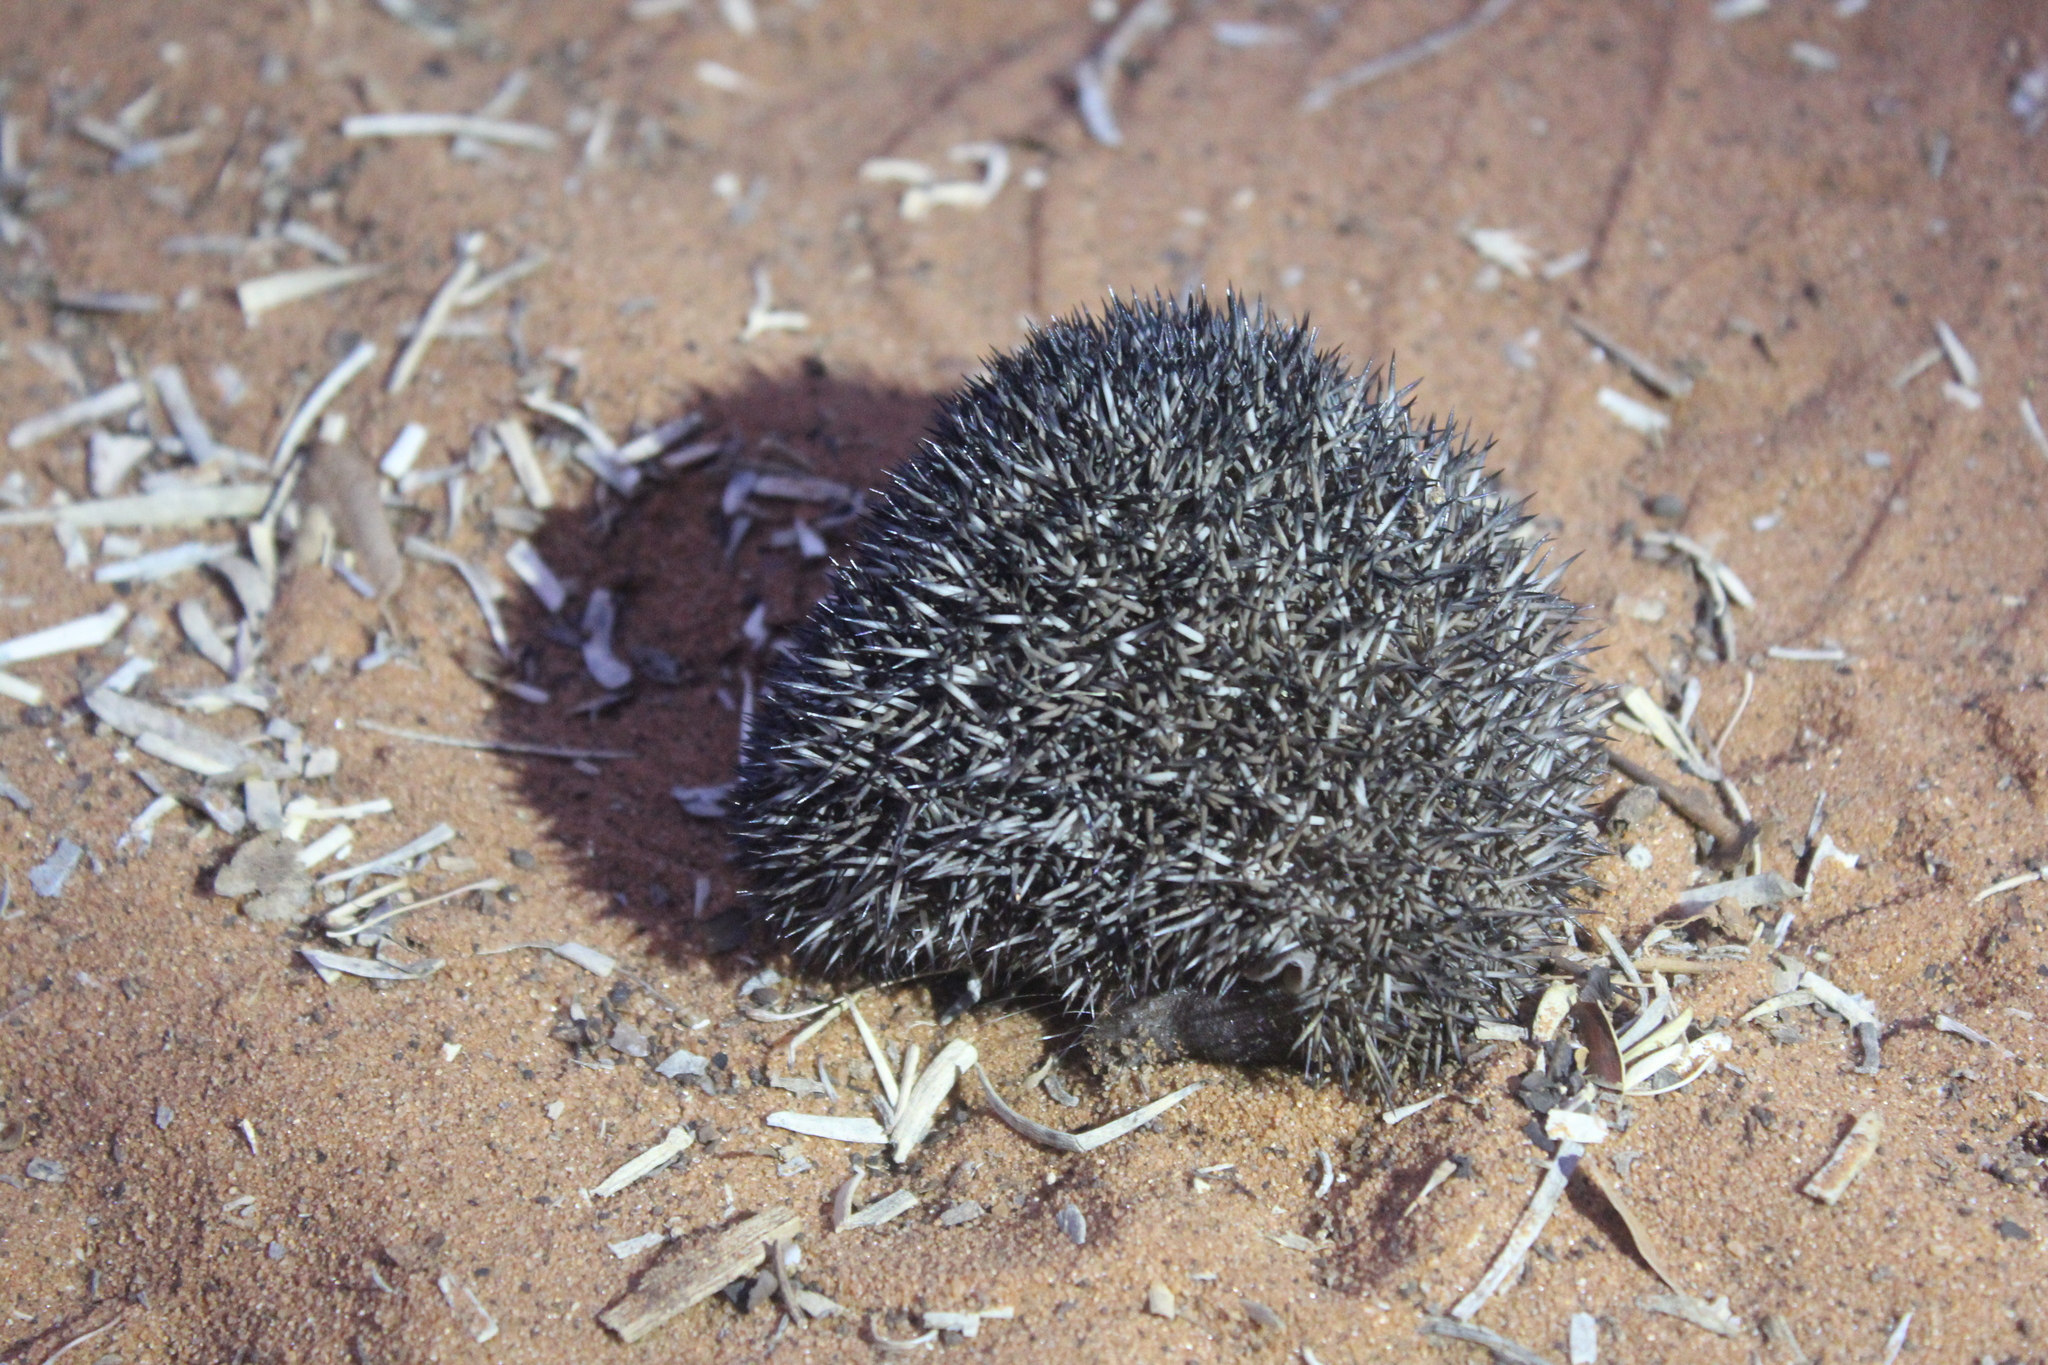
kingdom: Animalia
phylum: Chordata
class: Mammalia
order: Afrosoricida
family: Tenrecidae
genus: Setifer
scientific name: Setifer setosus
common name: Greater hedgehog tenrec
